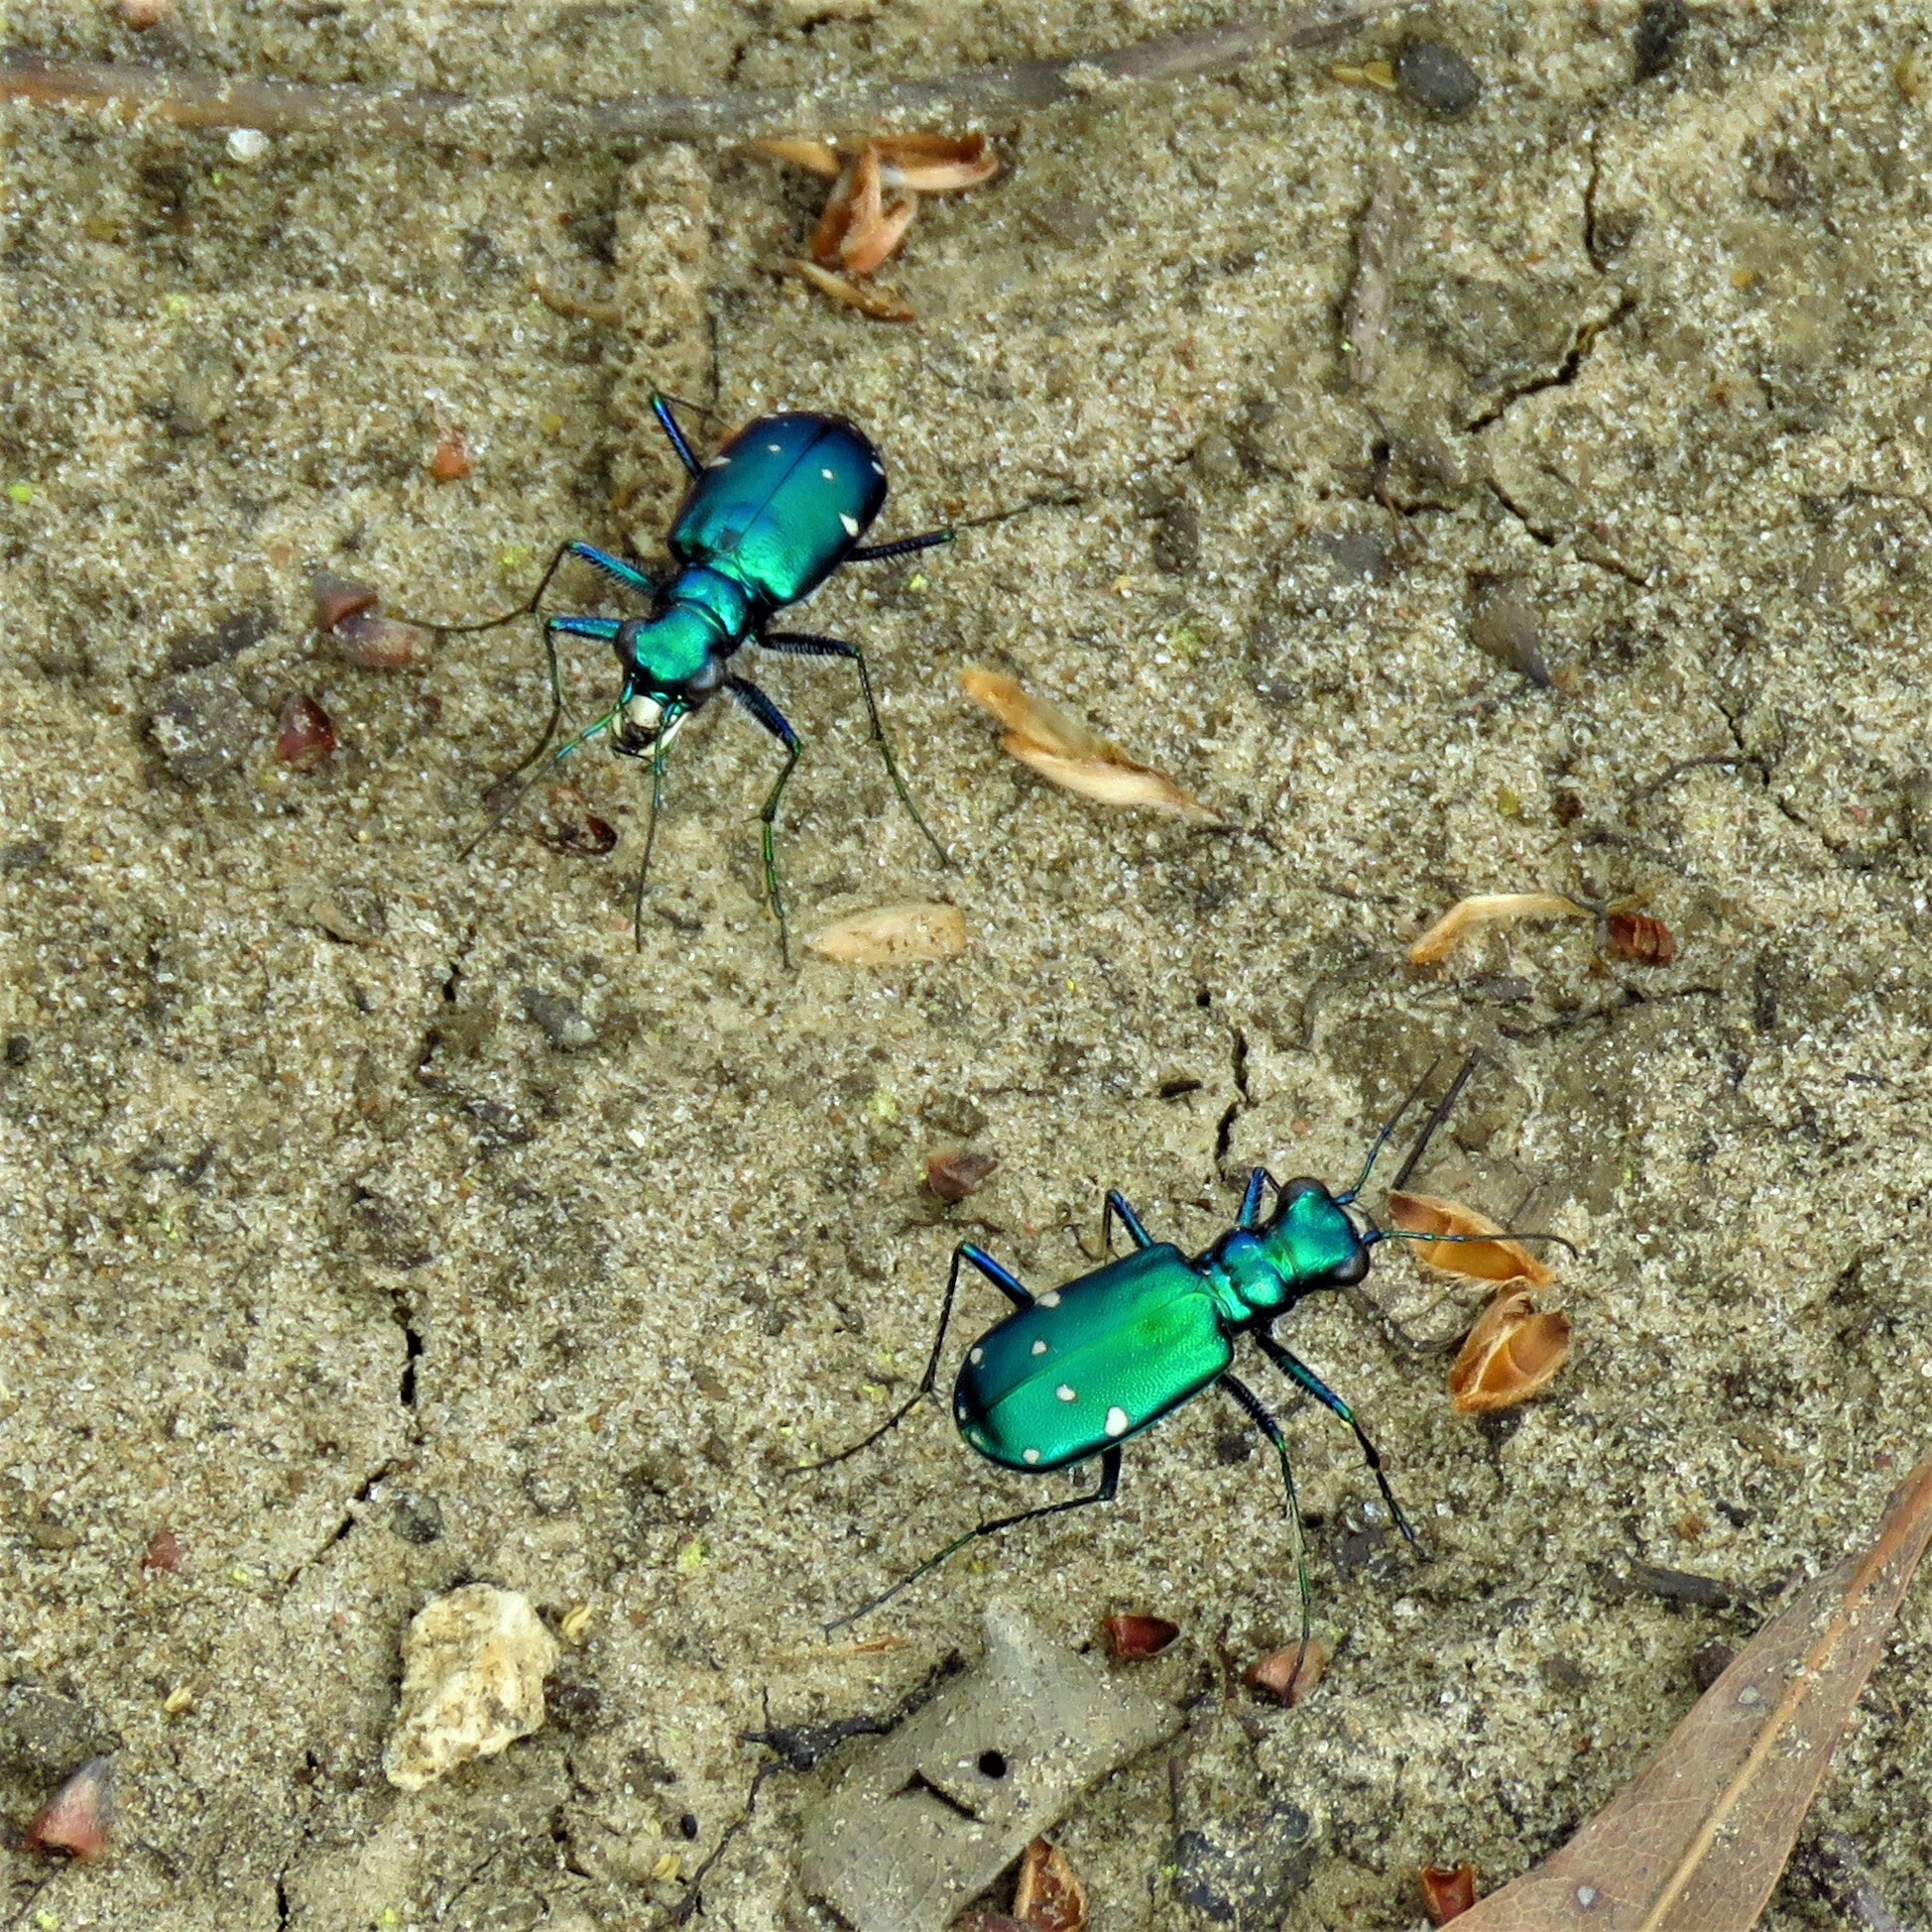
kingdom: Animalia
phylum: Arthropoda
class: Insecta
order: Coleoptera
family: Carabidae
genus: Cicindela
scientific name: Cicindela sexguttata
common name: Six-spotted tiger beetle
